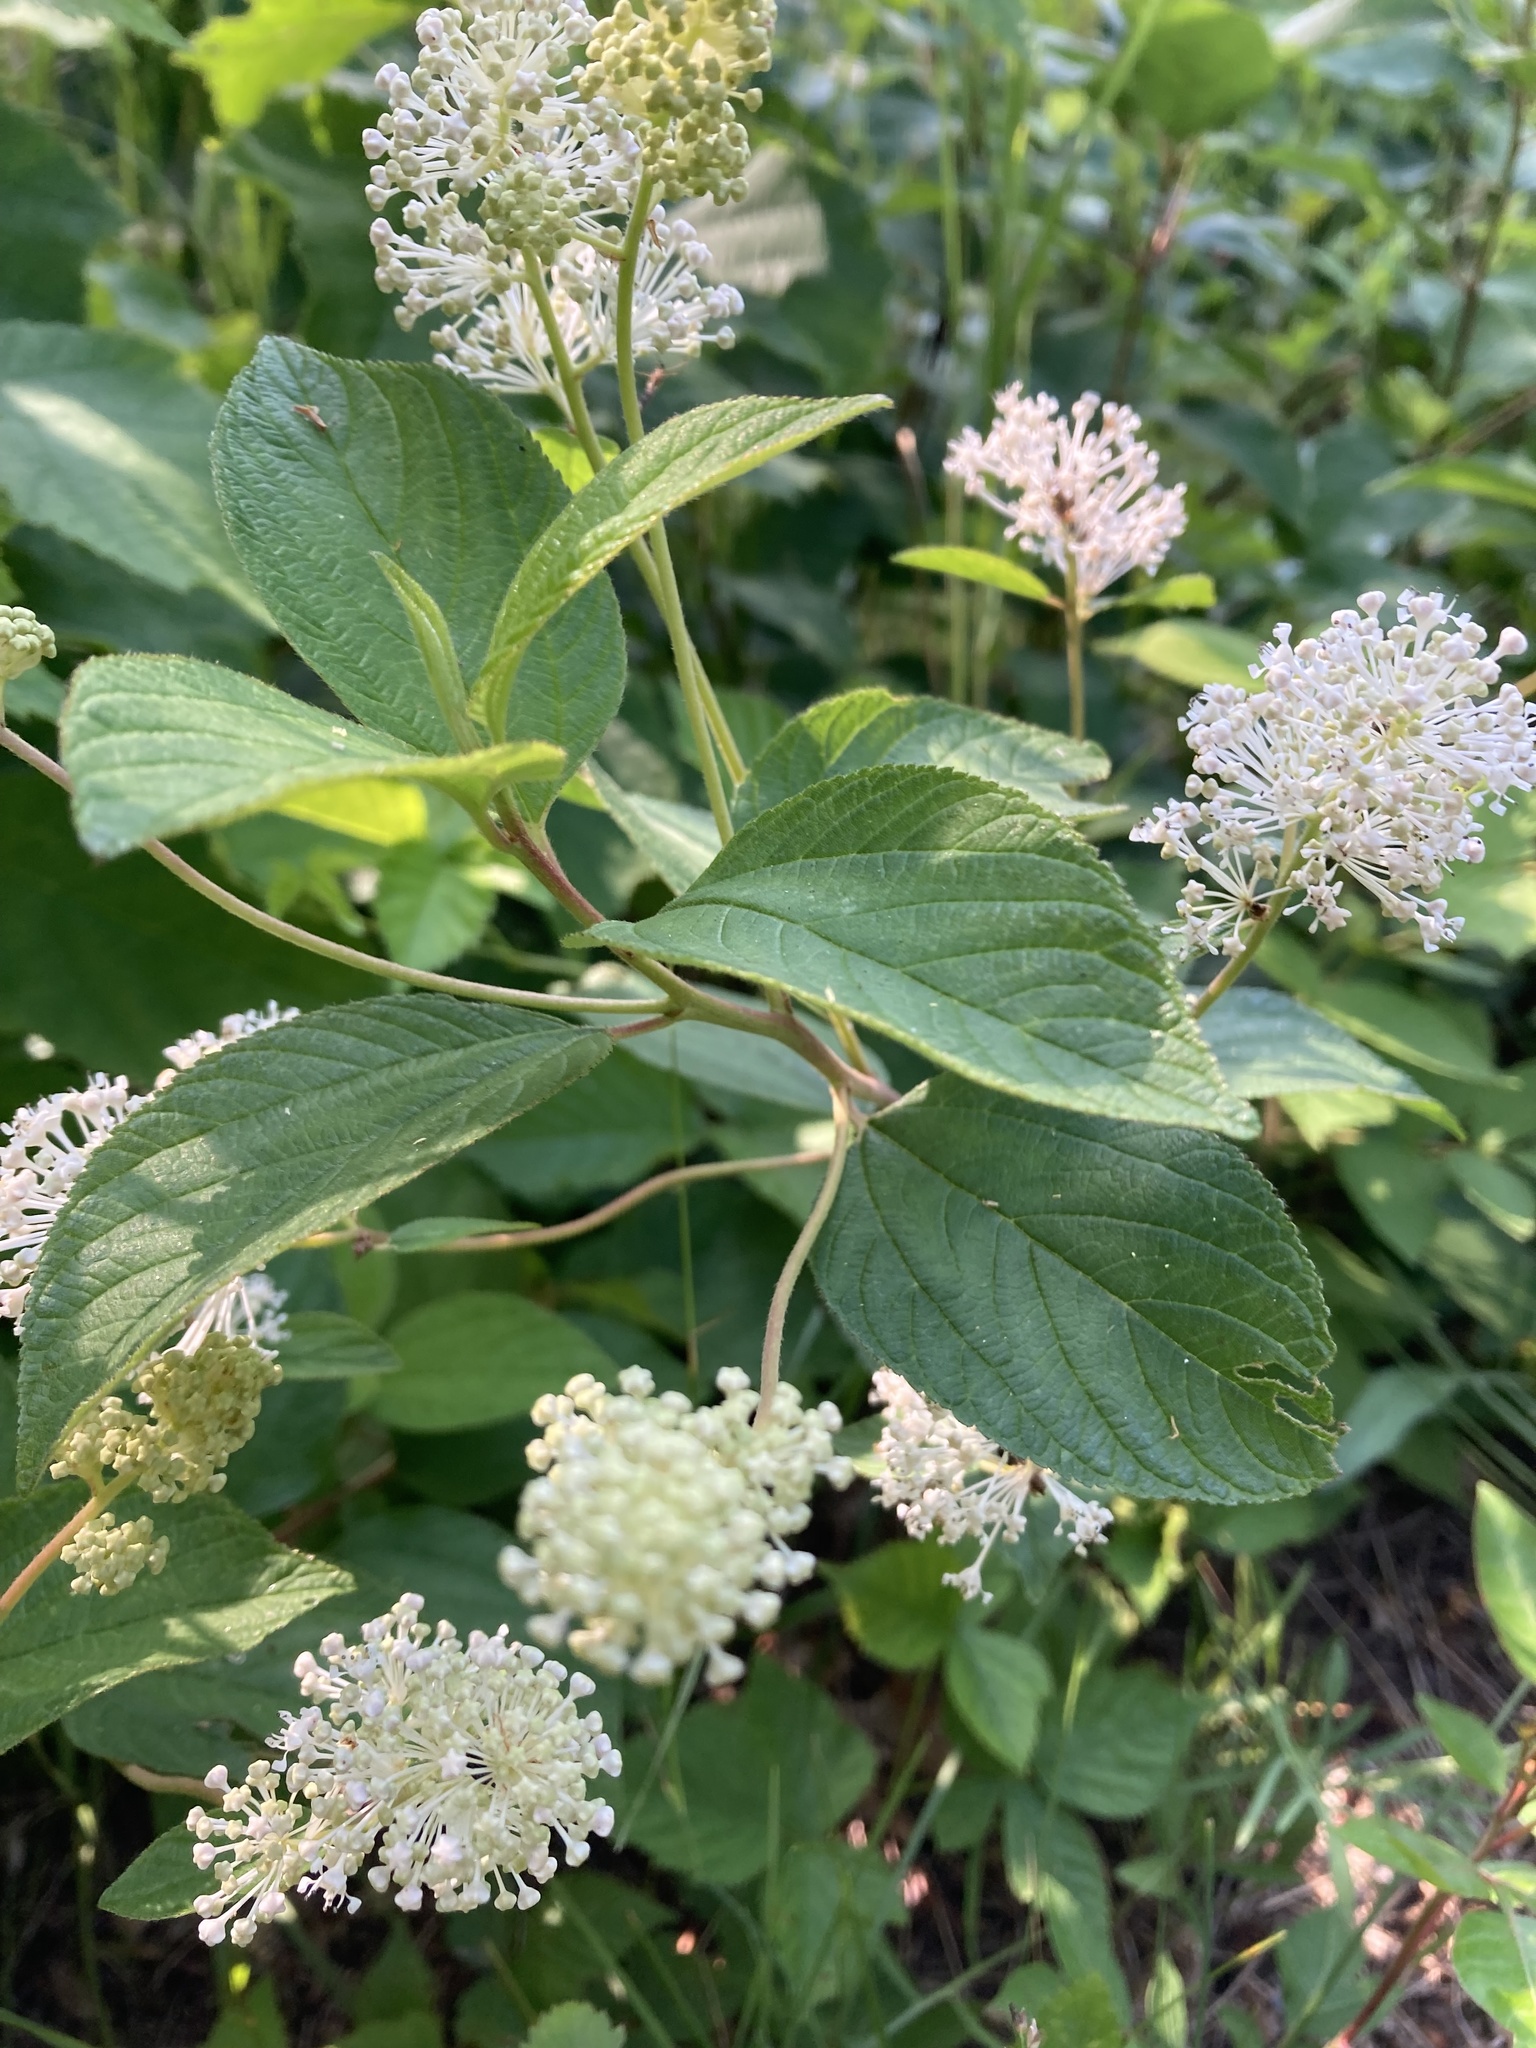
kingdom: Plantae
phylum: Tracheophyta
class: Magnoliopsida
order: Rosales
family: Rhamnaceae
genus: Ceanothus
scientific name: Ceanothus americanus
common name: Redroot
